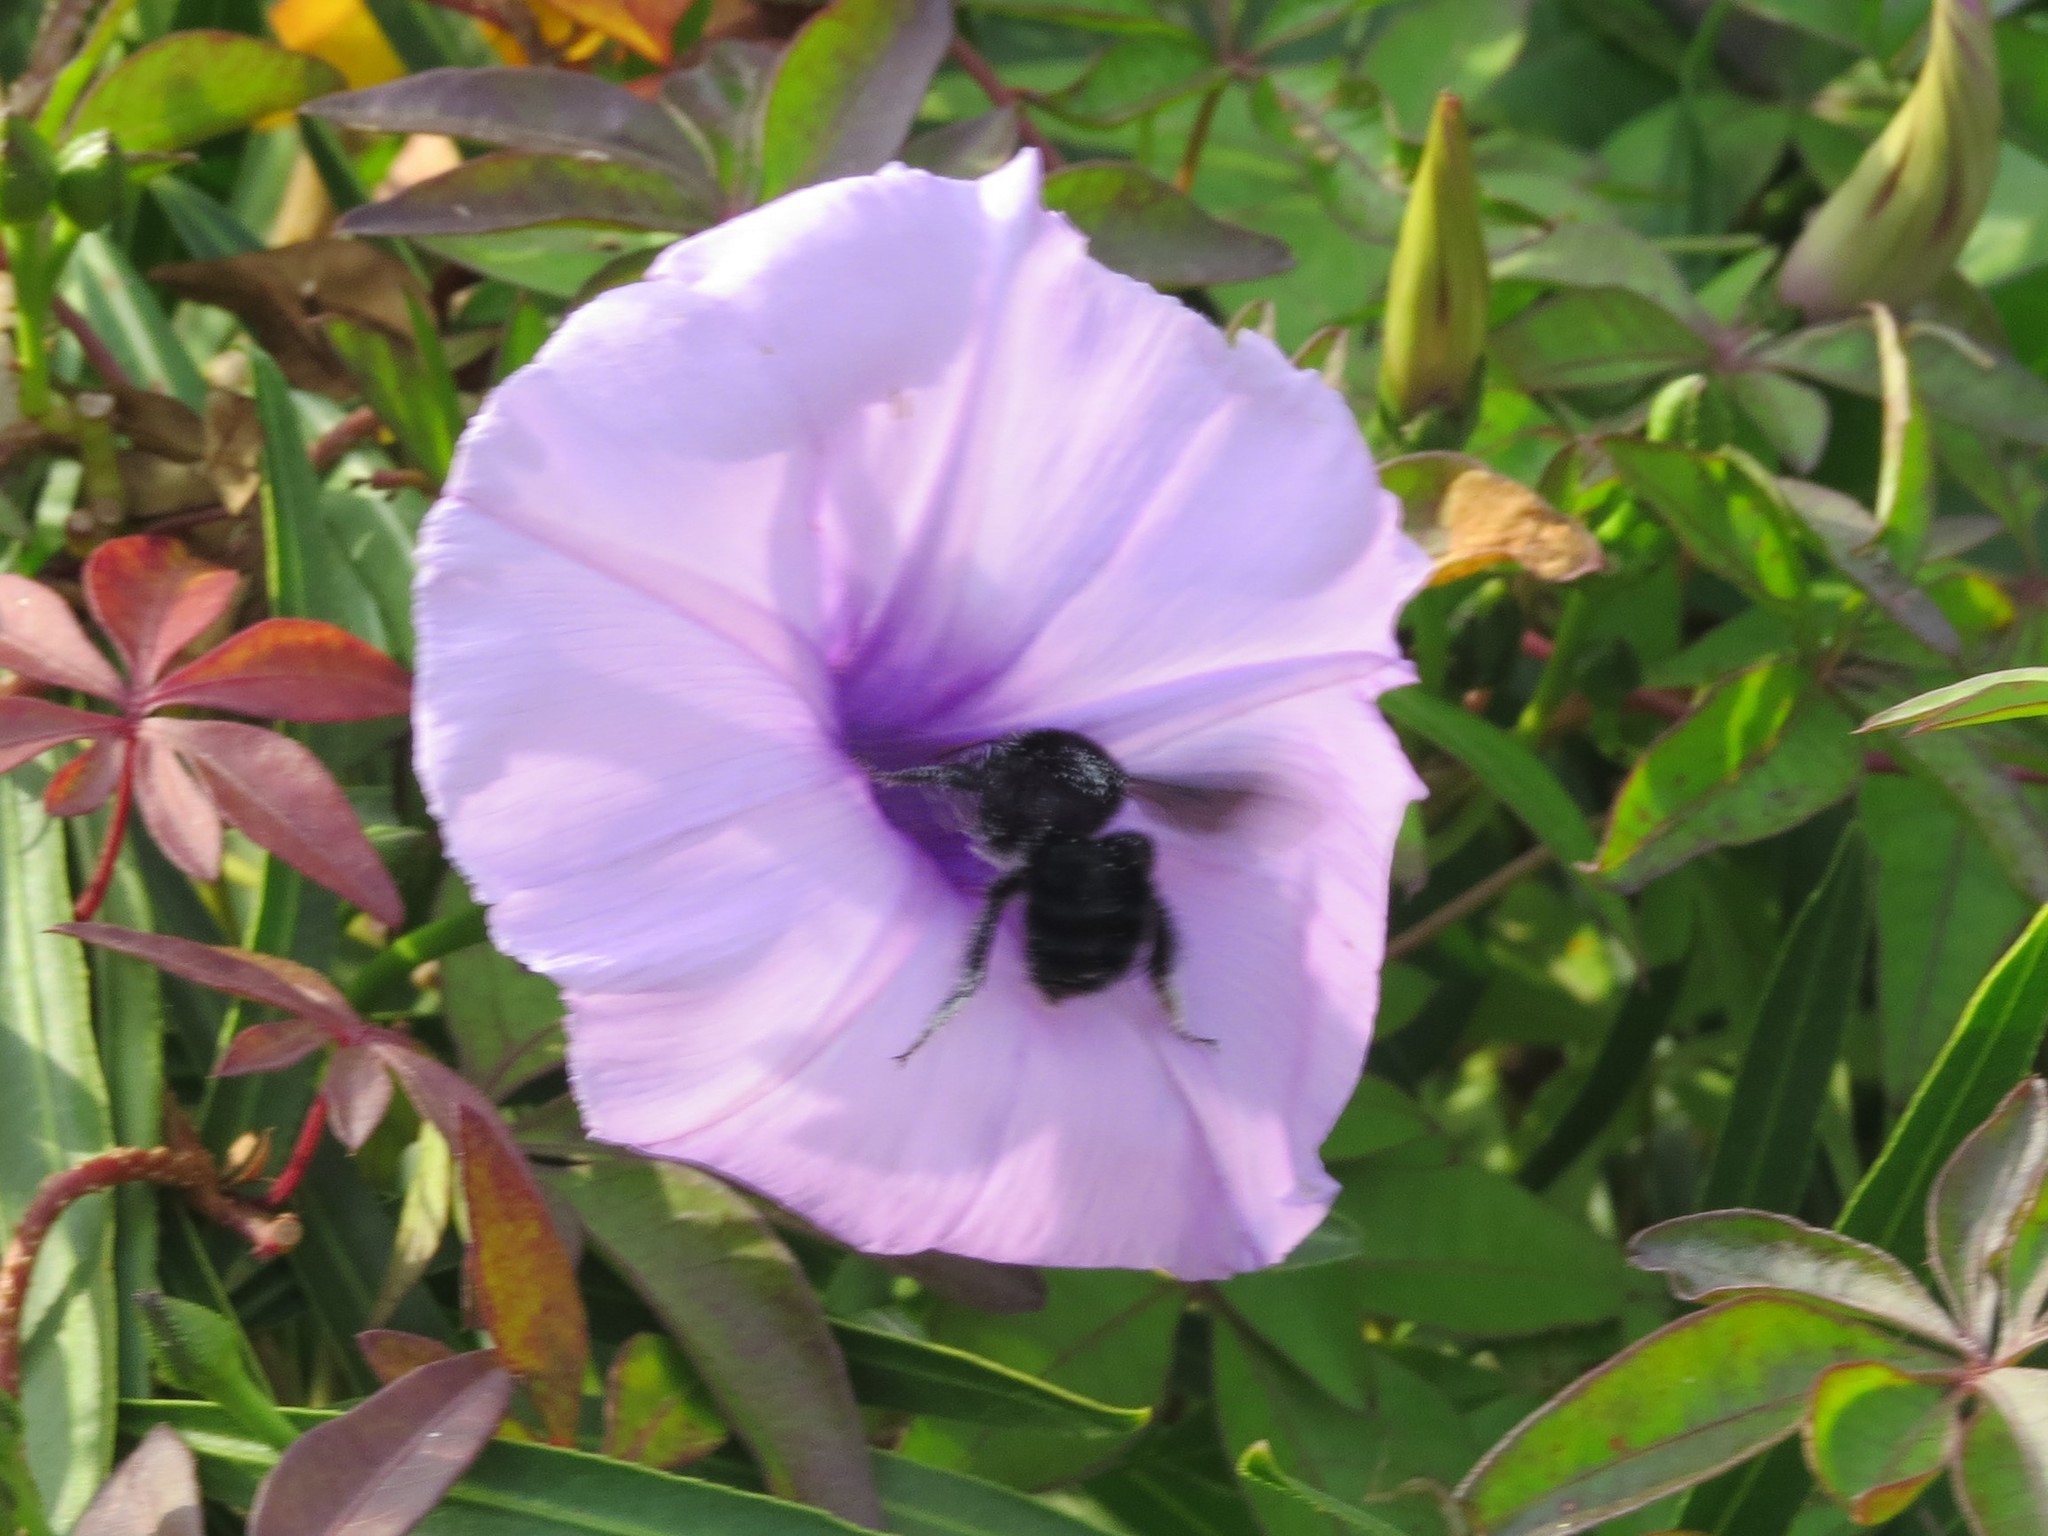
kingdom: Animalia
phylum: Arthropoda
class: Insecta
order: Hymenoptera
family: Apidae
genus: Bombus
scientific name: Bombus pauloensis
